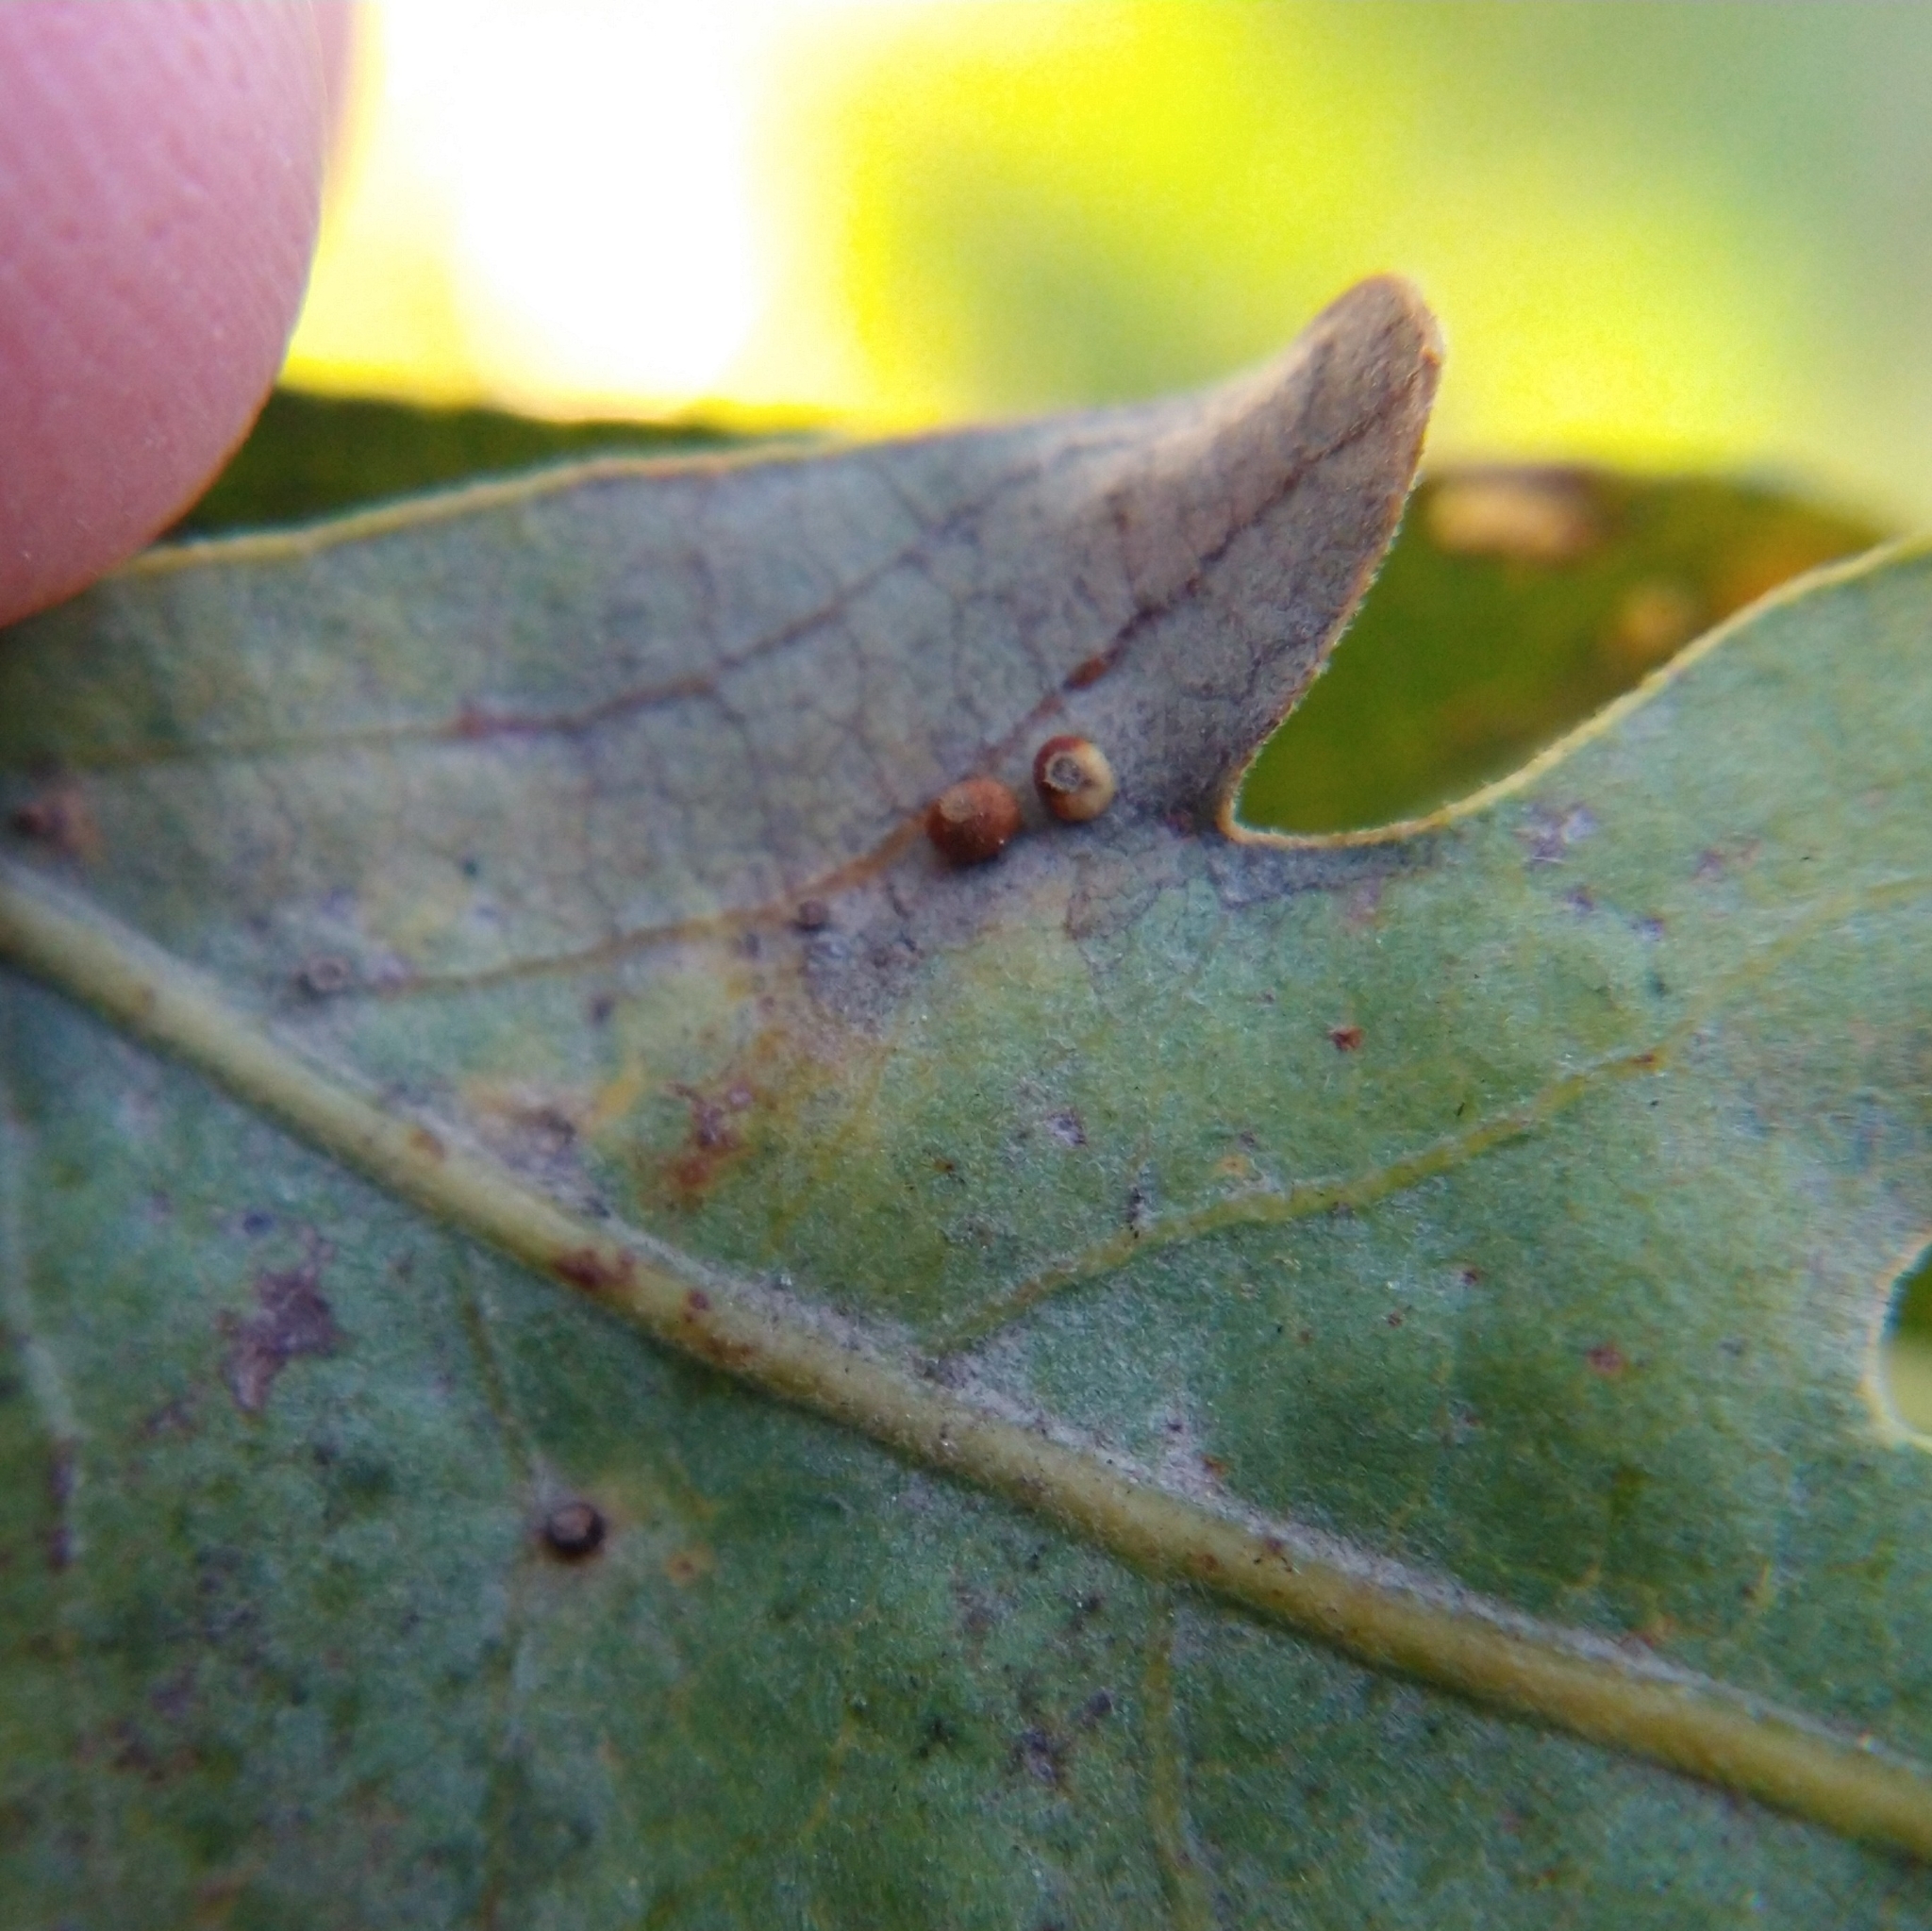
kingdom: Animalia
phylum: Arthropoda
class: Insecta
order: Hymenoptera
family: Cynipidae
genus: Neuroterus
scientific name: Neuroterus saltarius
